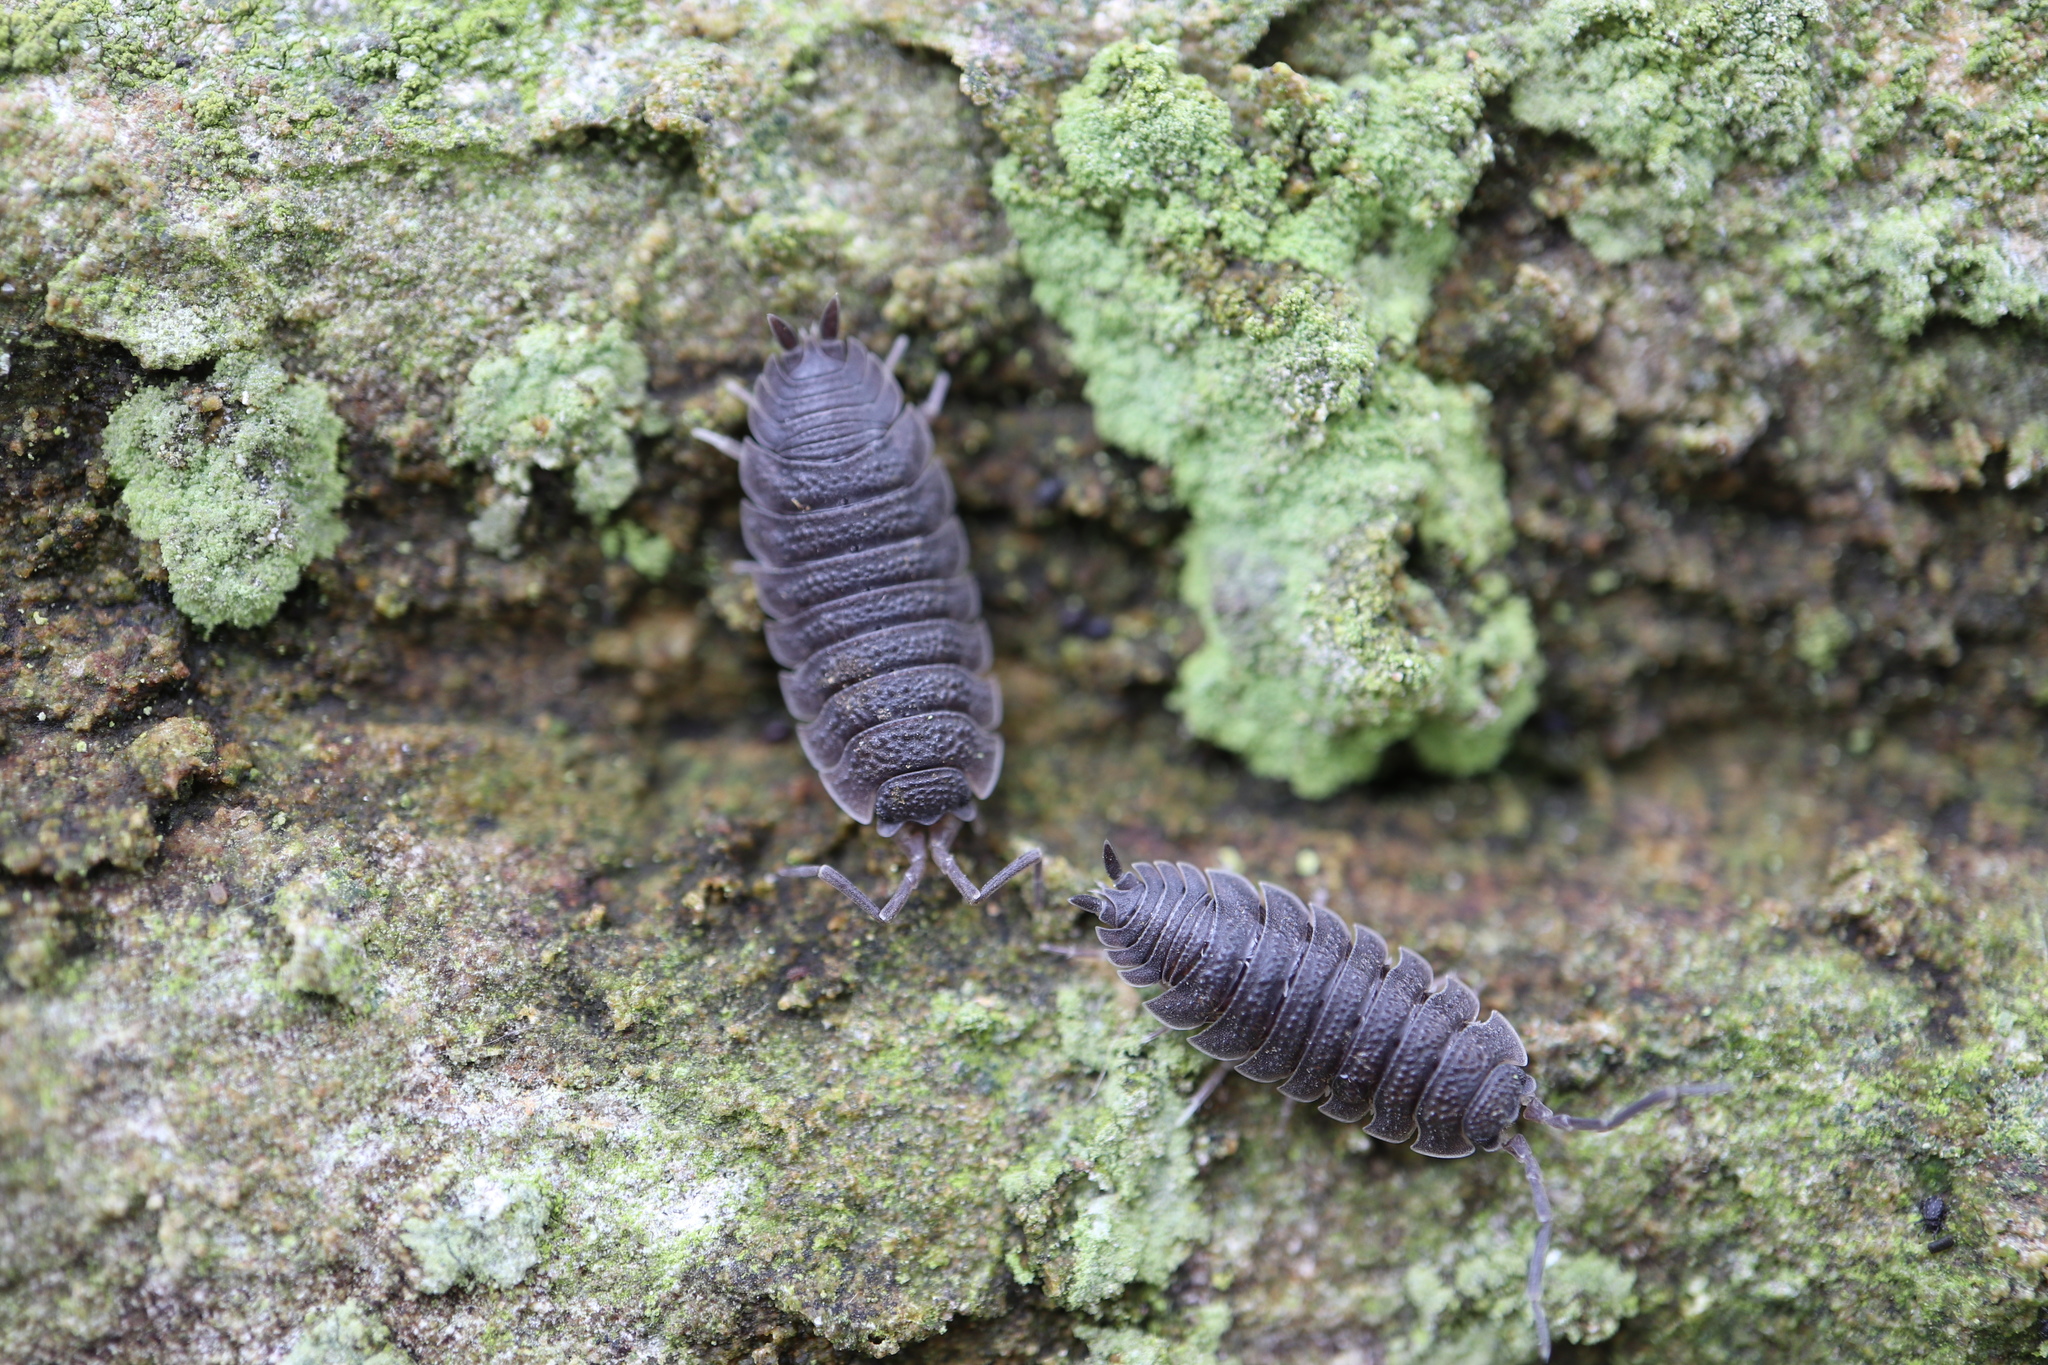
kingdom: Animalia
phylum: Arthropoda
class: Malacostraca
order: Isopoda
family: Porcellionidae
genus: Porcellio
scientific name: Porcellio scaber
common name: Common rough woodlouse
